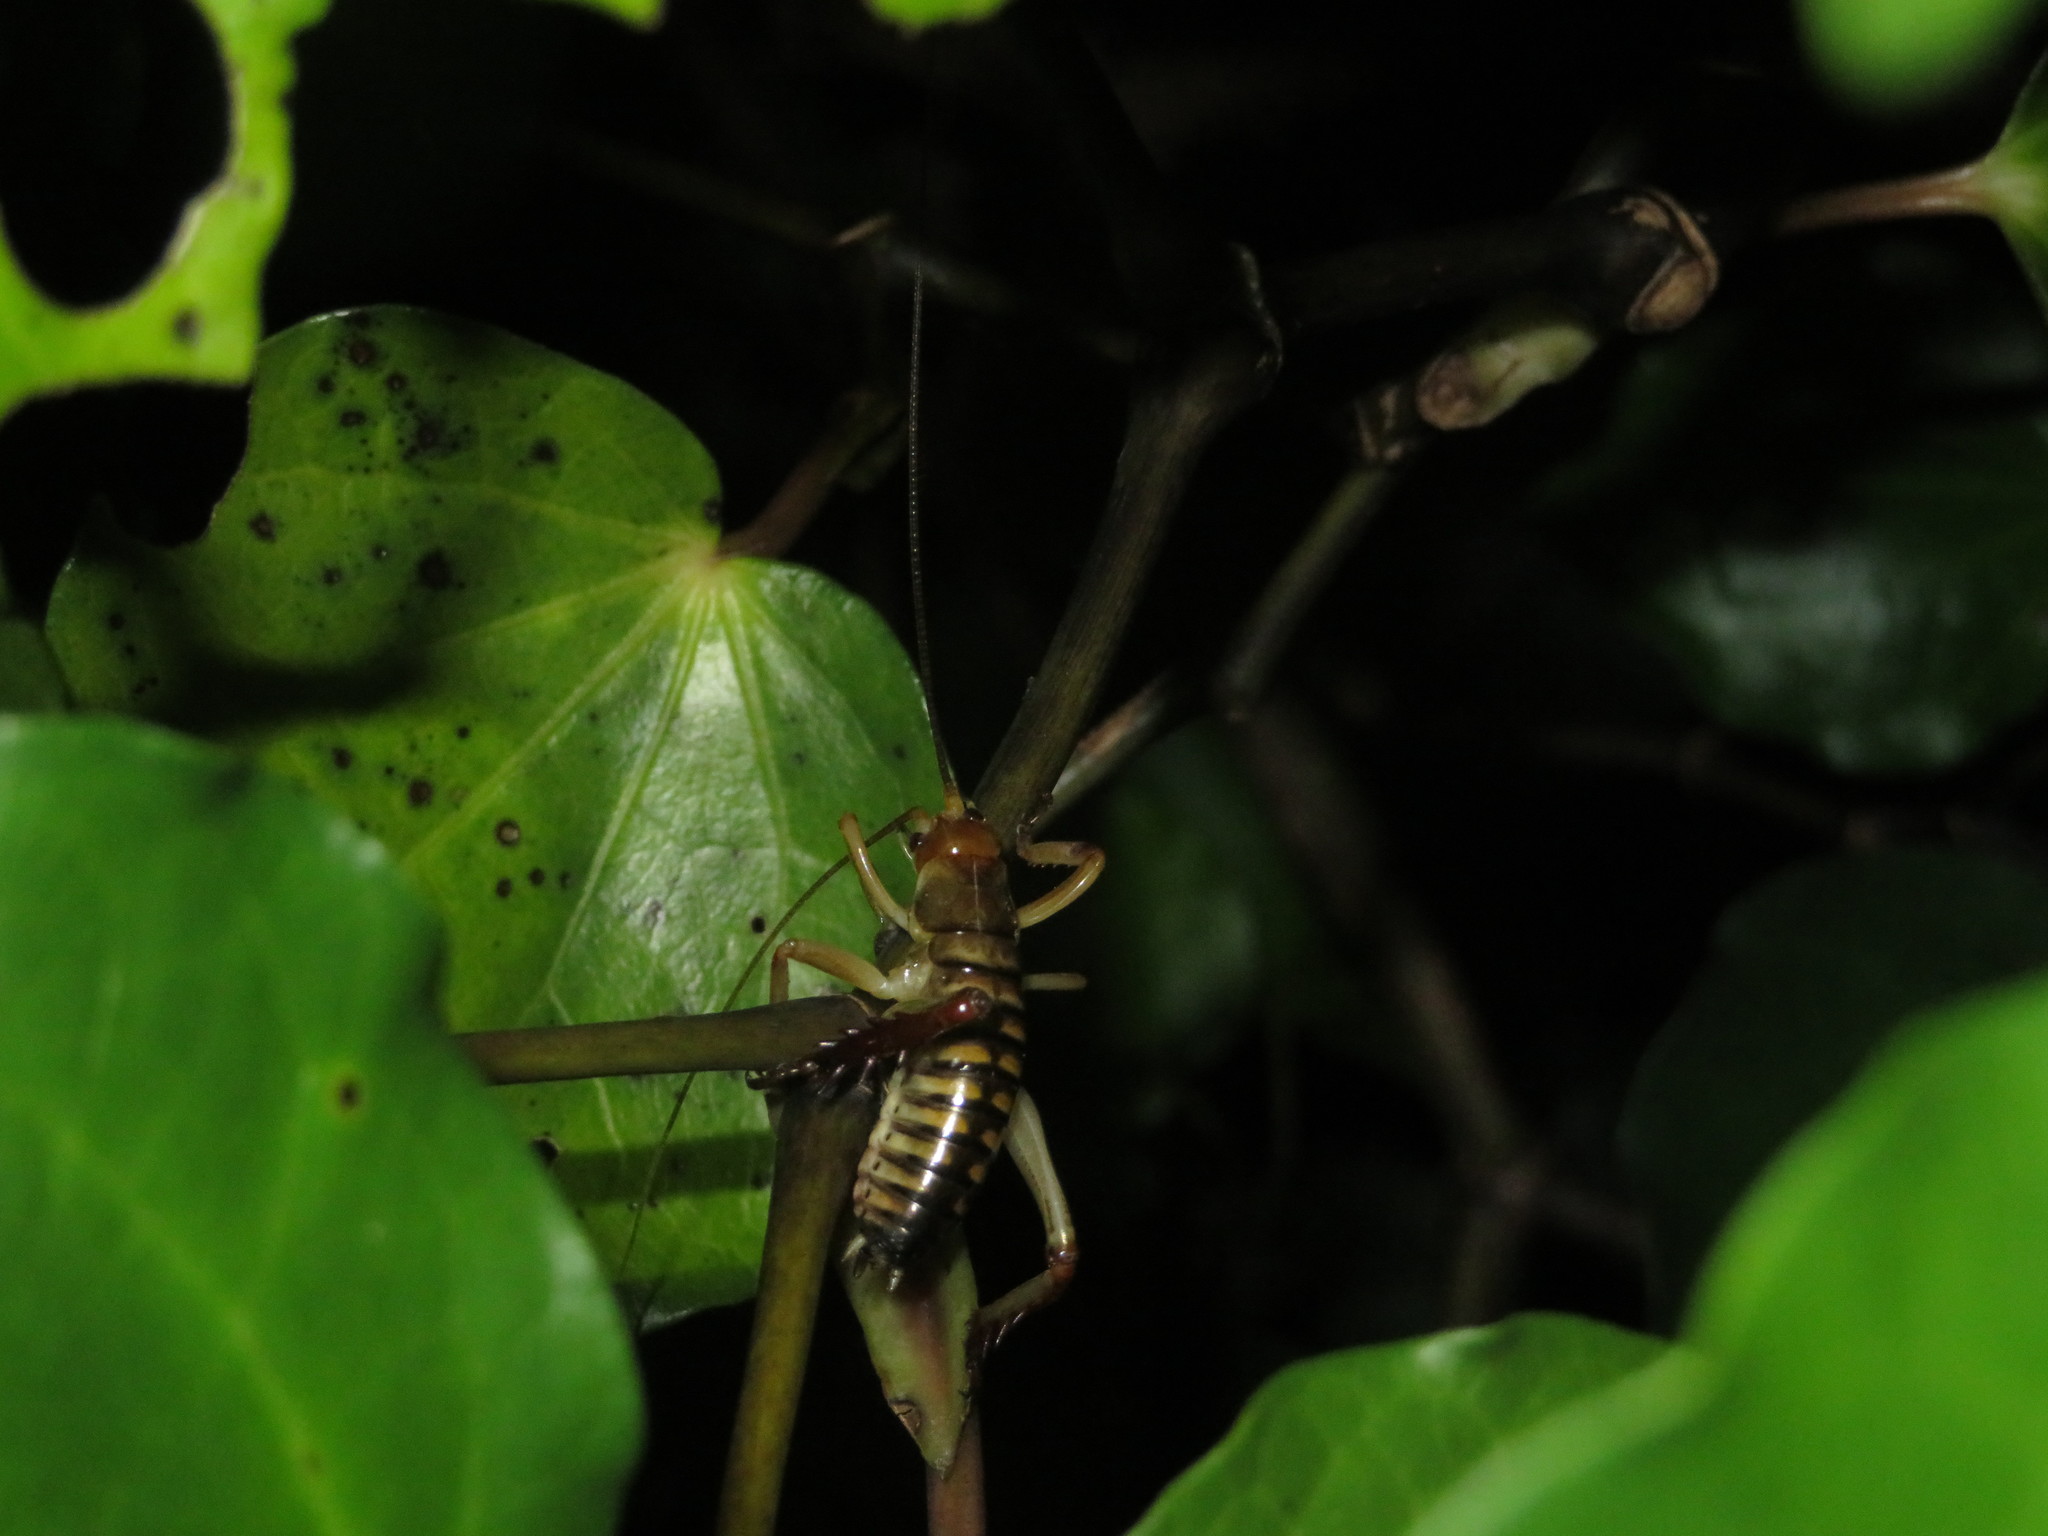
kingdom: Animalia
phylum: Arthropoda
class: Insecta
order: Orthoptera
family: Anostostomatidae
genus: Hemideina
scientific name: Hemideina crassidens
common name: Wellington tree weta
